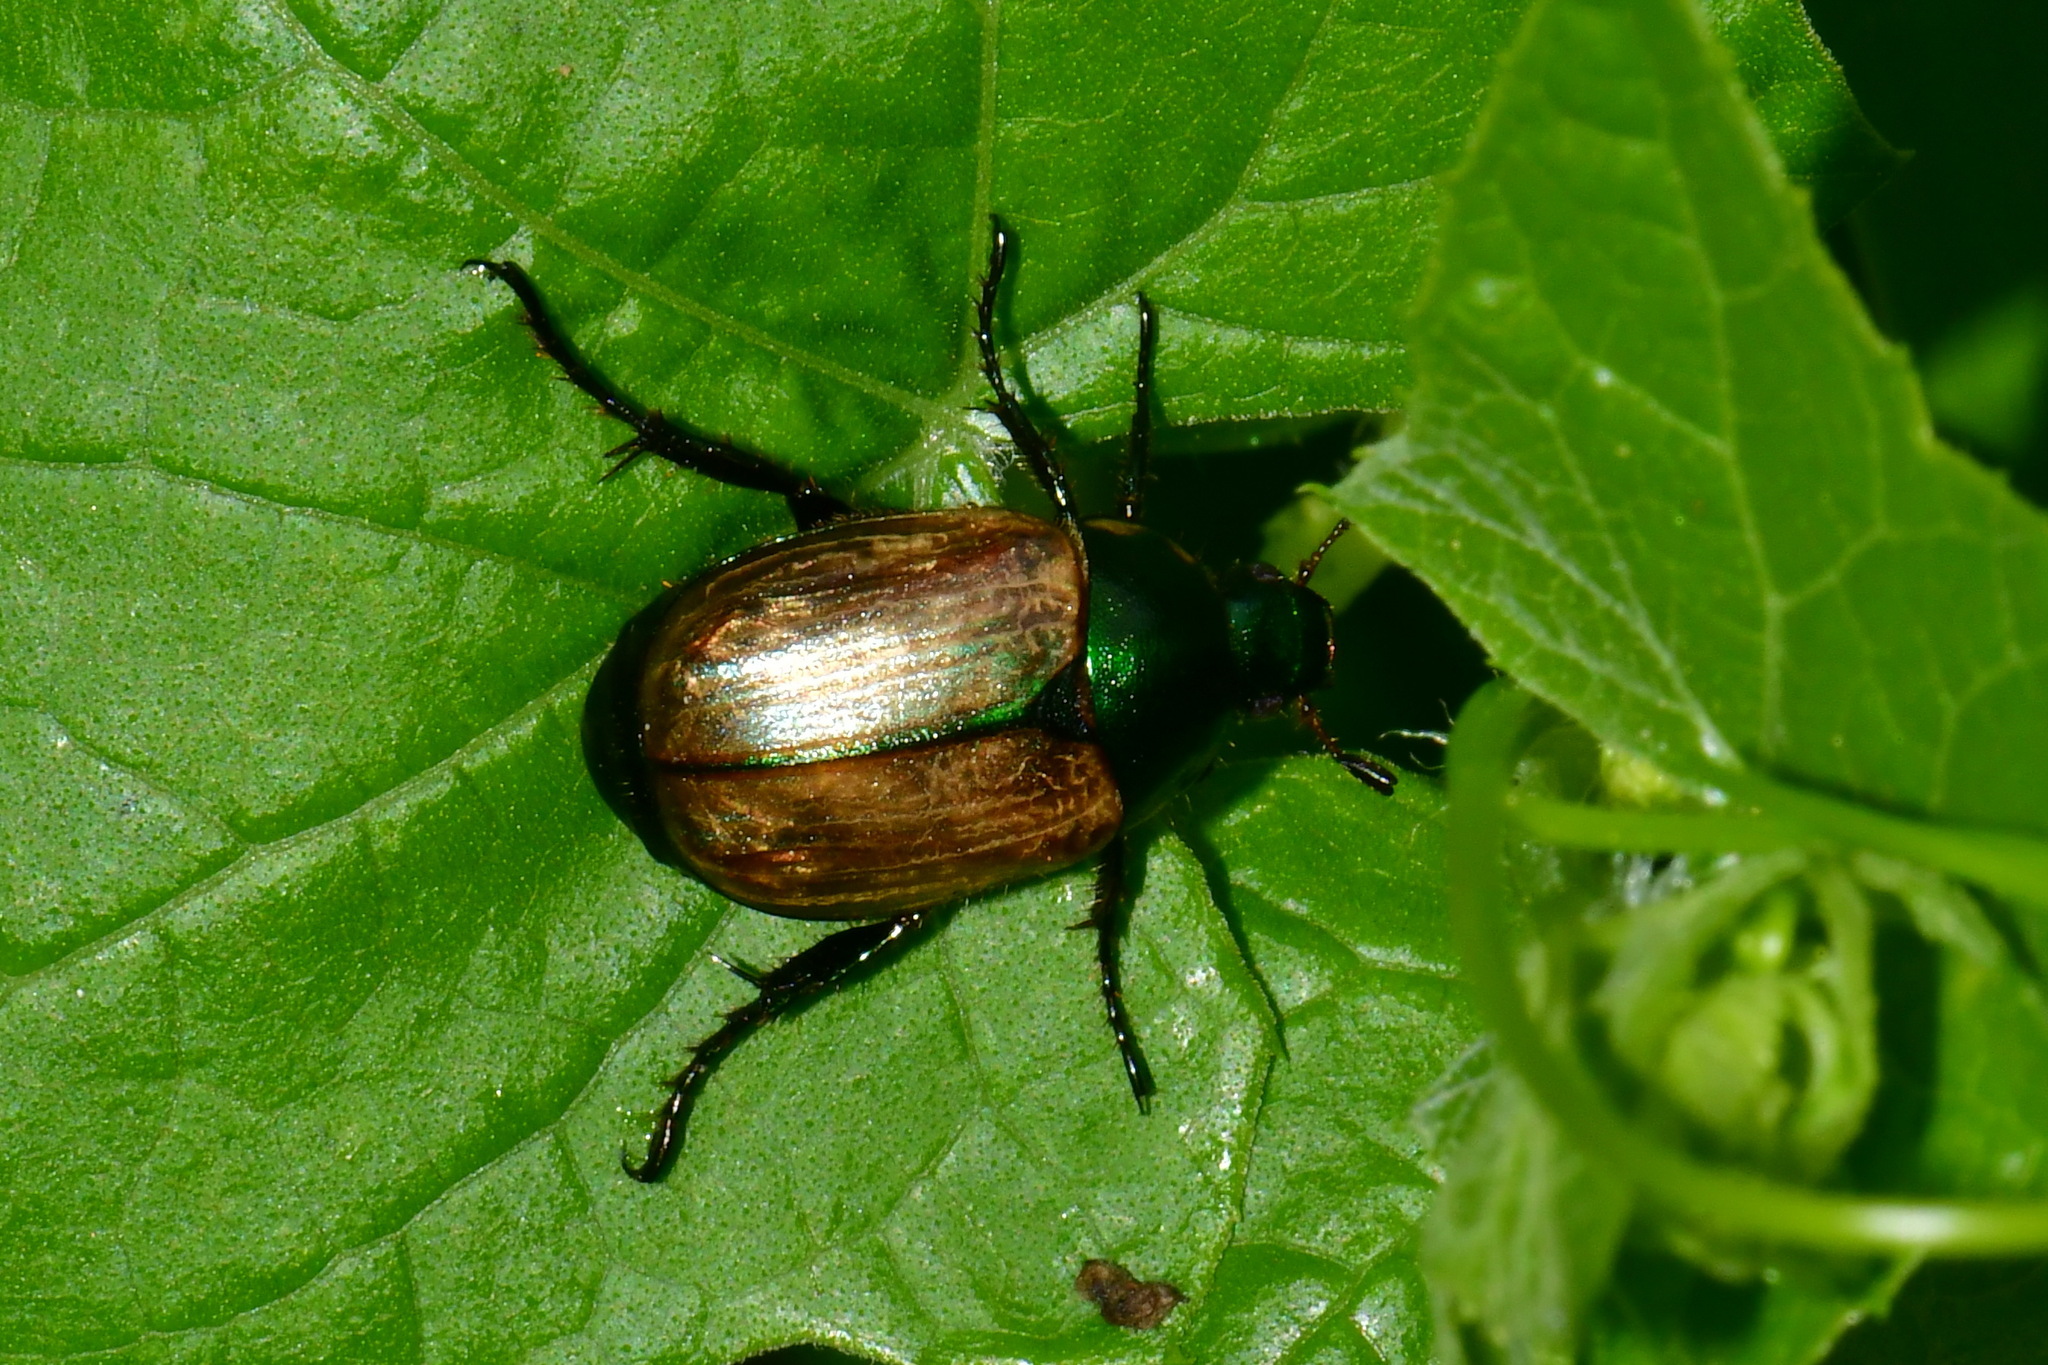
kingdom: Animalia
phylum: Arthropoda
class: Insecta
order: Coleoptera
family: Scarabaeidae
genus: Anomala
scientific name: Anomala dubia
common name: Dune chafer
